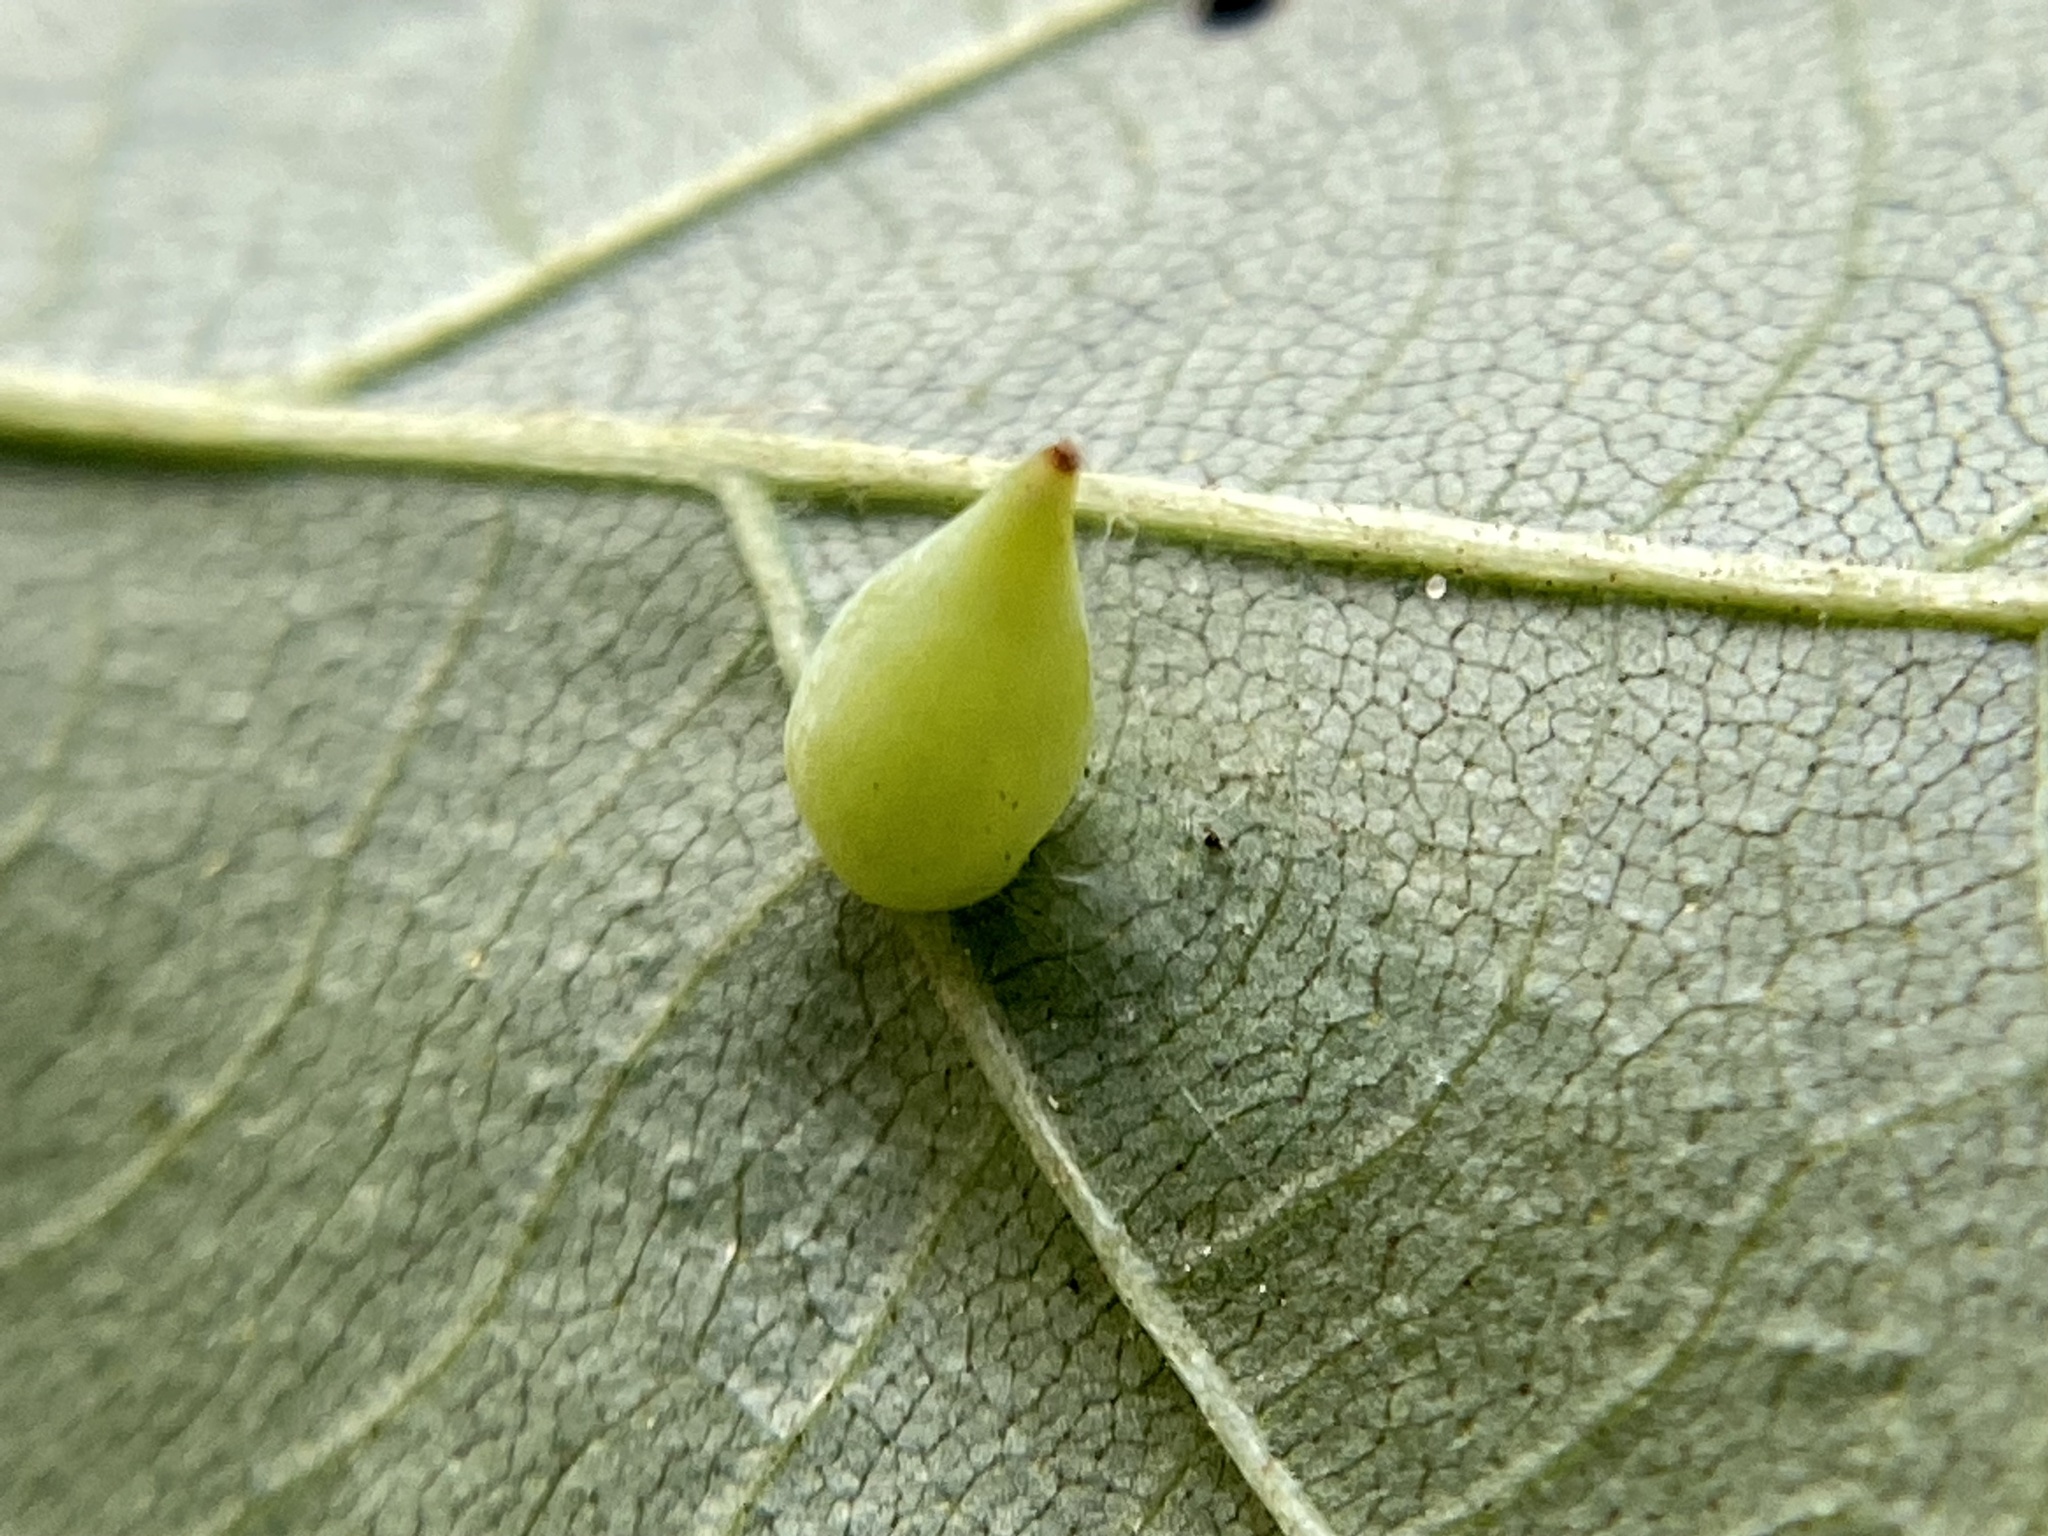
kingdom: Animalia
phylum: Arthropoda
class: Insecta
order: Diptera
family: Cecidomyiidae
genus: Caryomyia
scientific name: Caryomyia caryaecola
